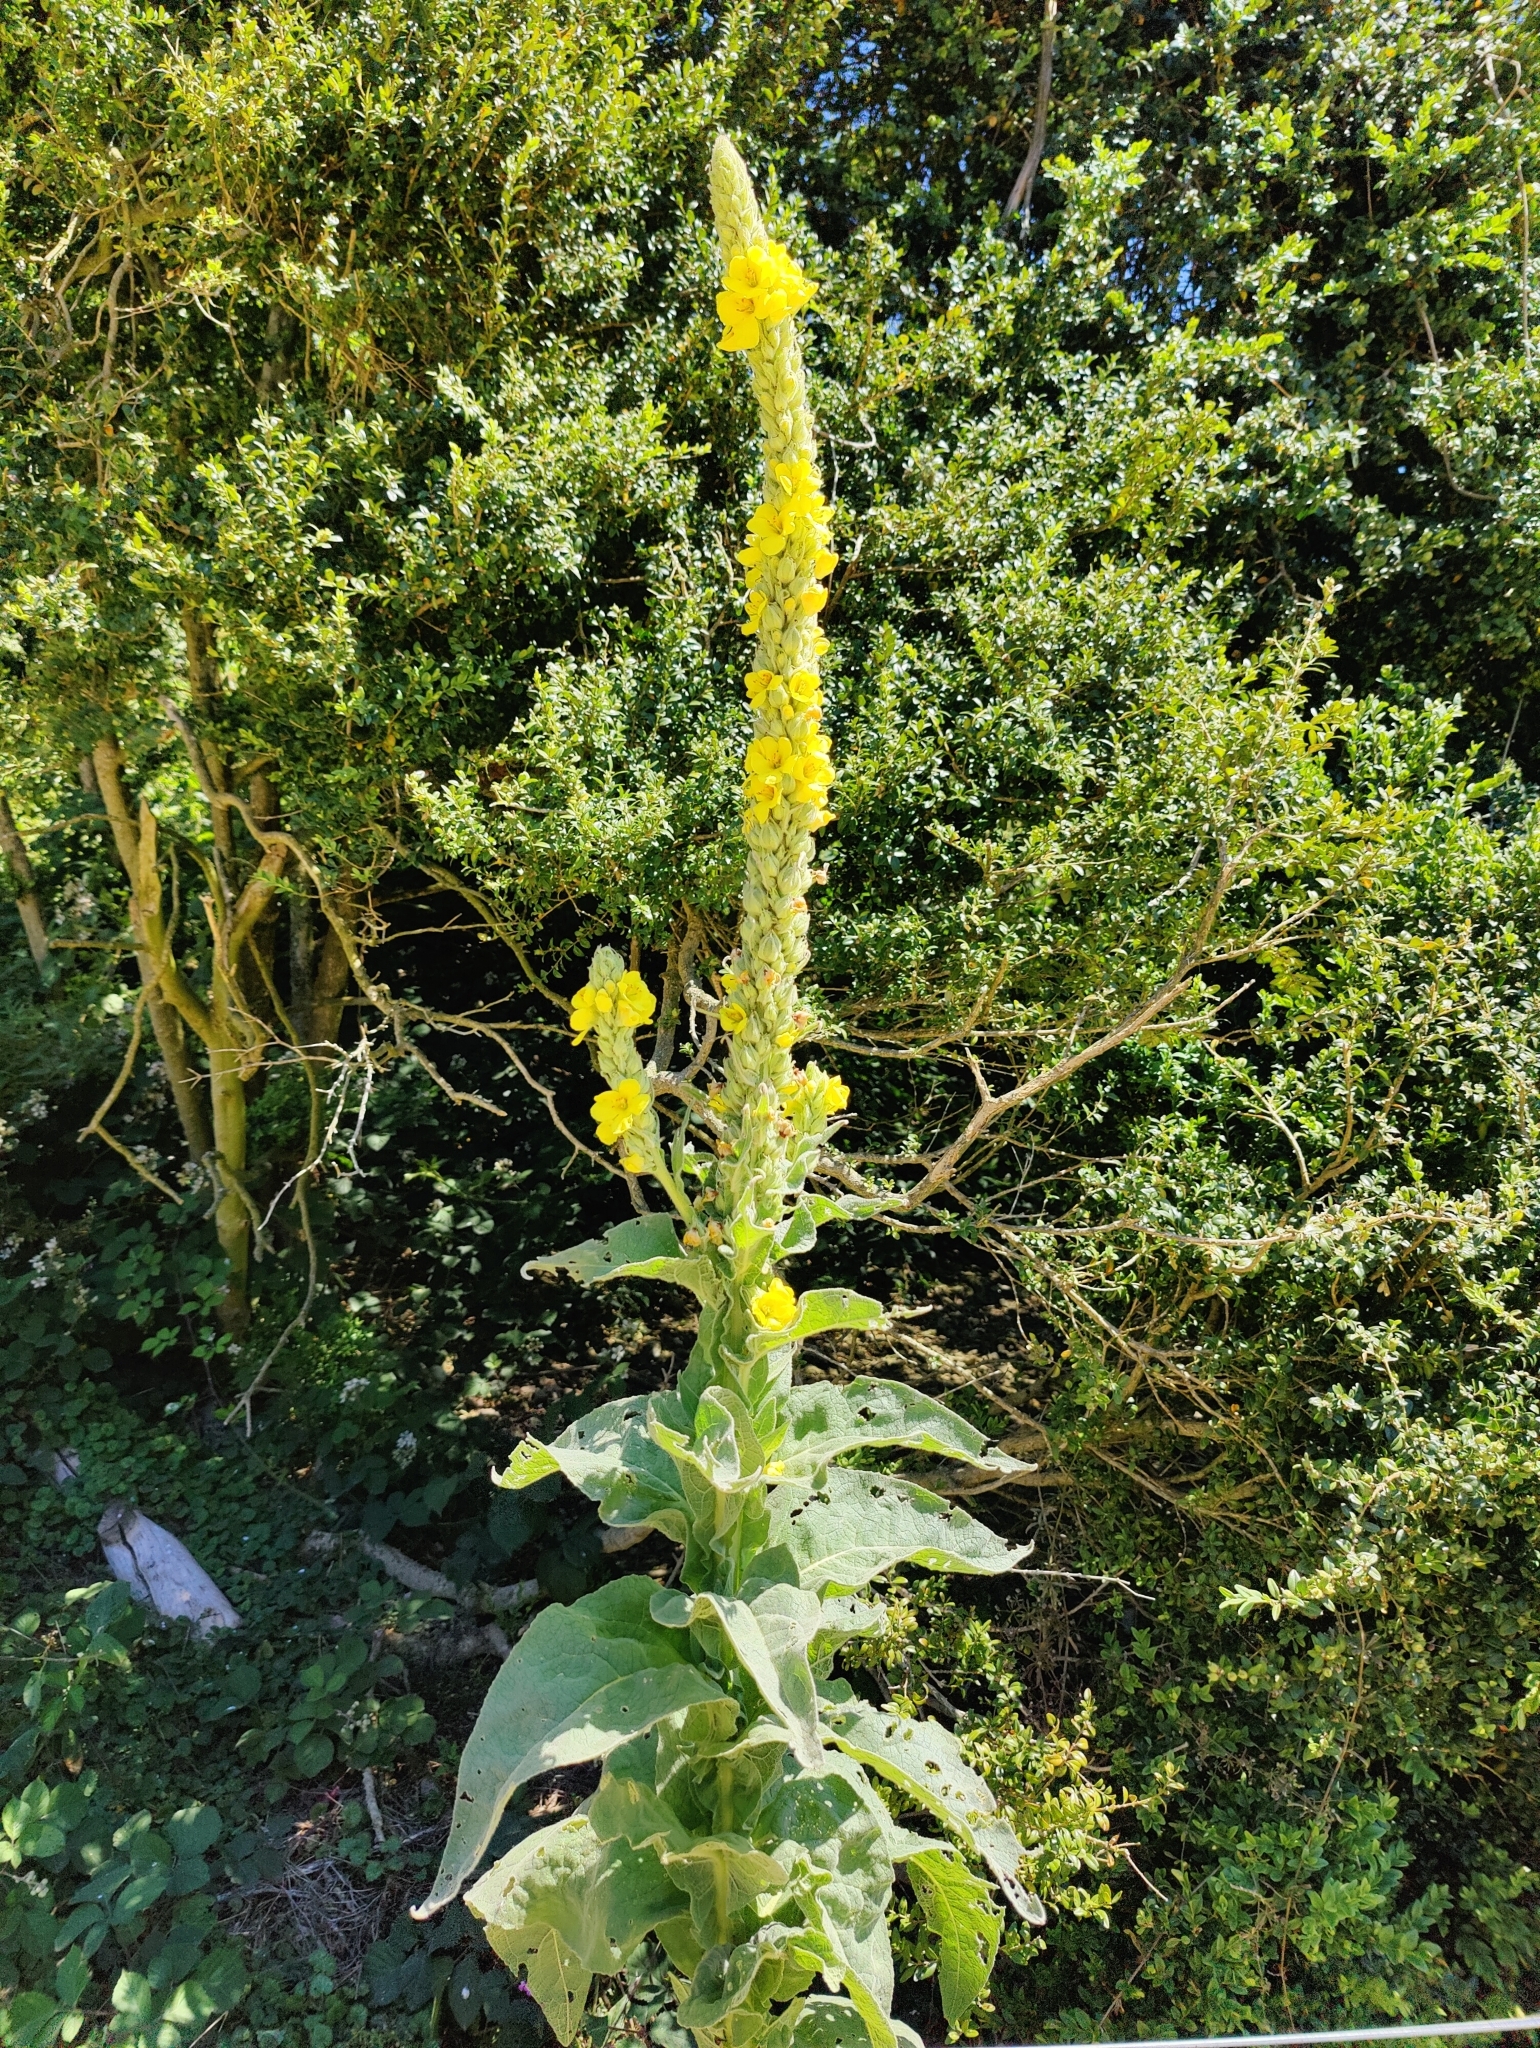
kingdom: Plantae
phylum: Tracheophyta
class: Magnoliopsida
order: Lamiales
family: Scrophulariaceae
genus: Verbascum
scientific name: Verbascum thapsus
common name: Common mullein
